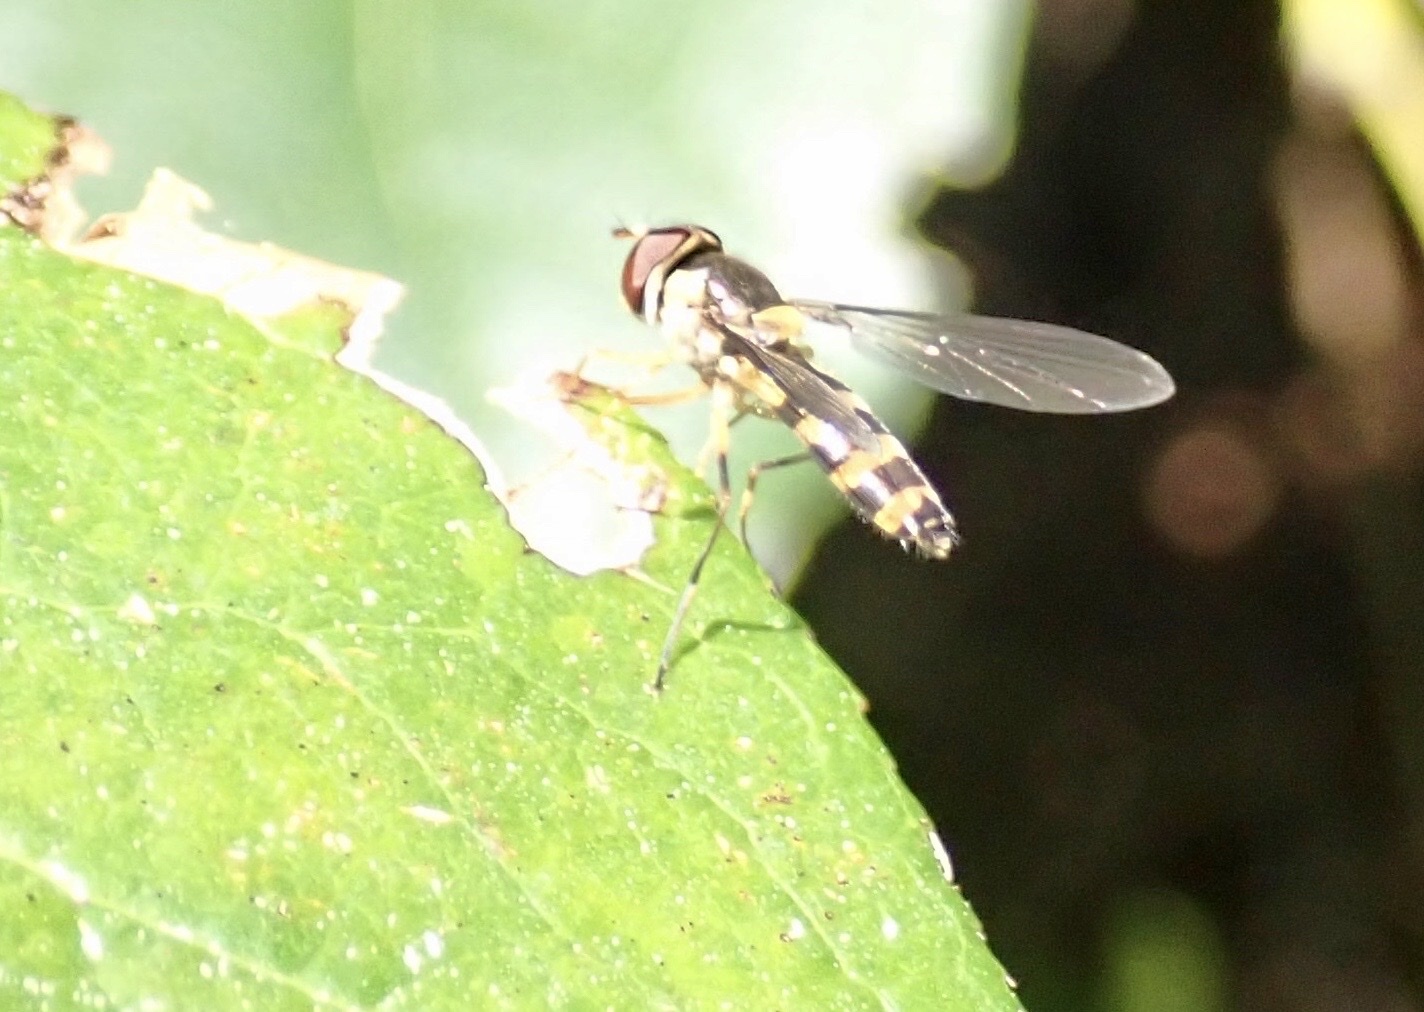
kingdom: Animalia
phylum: Arthropoda
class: Insecta
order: Diptera
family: Syrphidae
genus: Meliscaeva
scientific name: Meliscaeva cinctella
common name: American thintail fly
